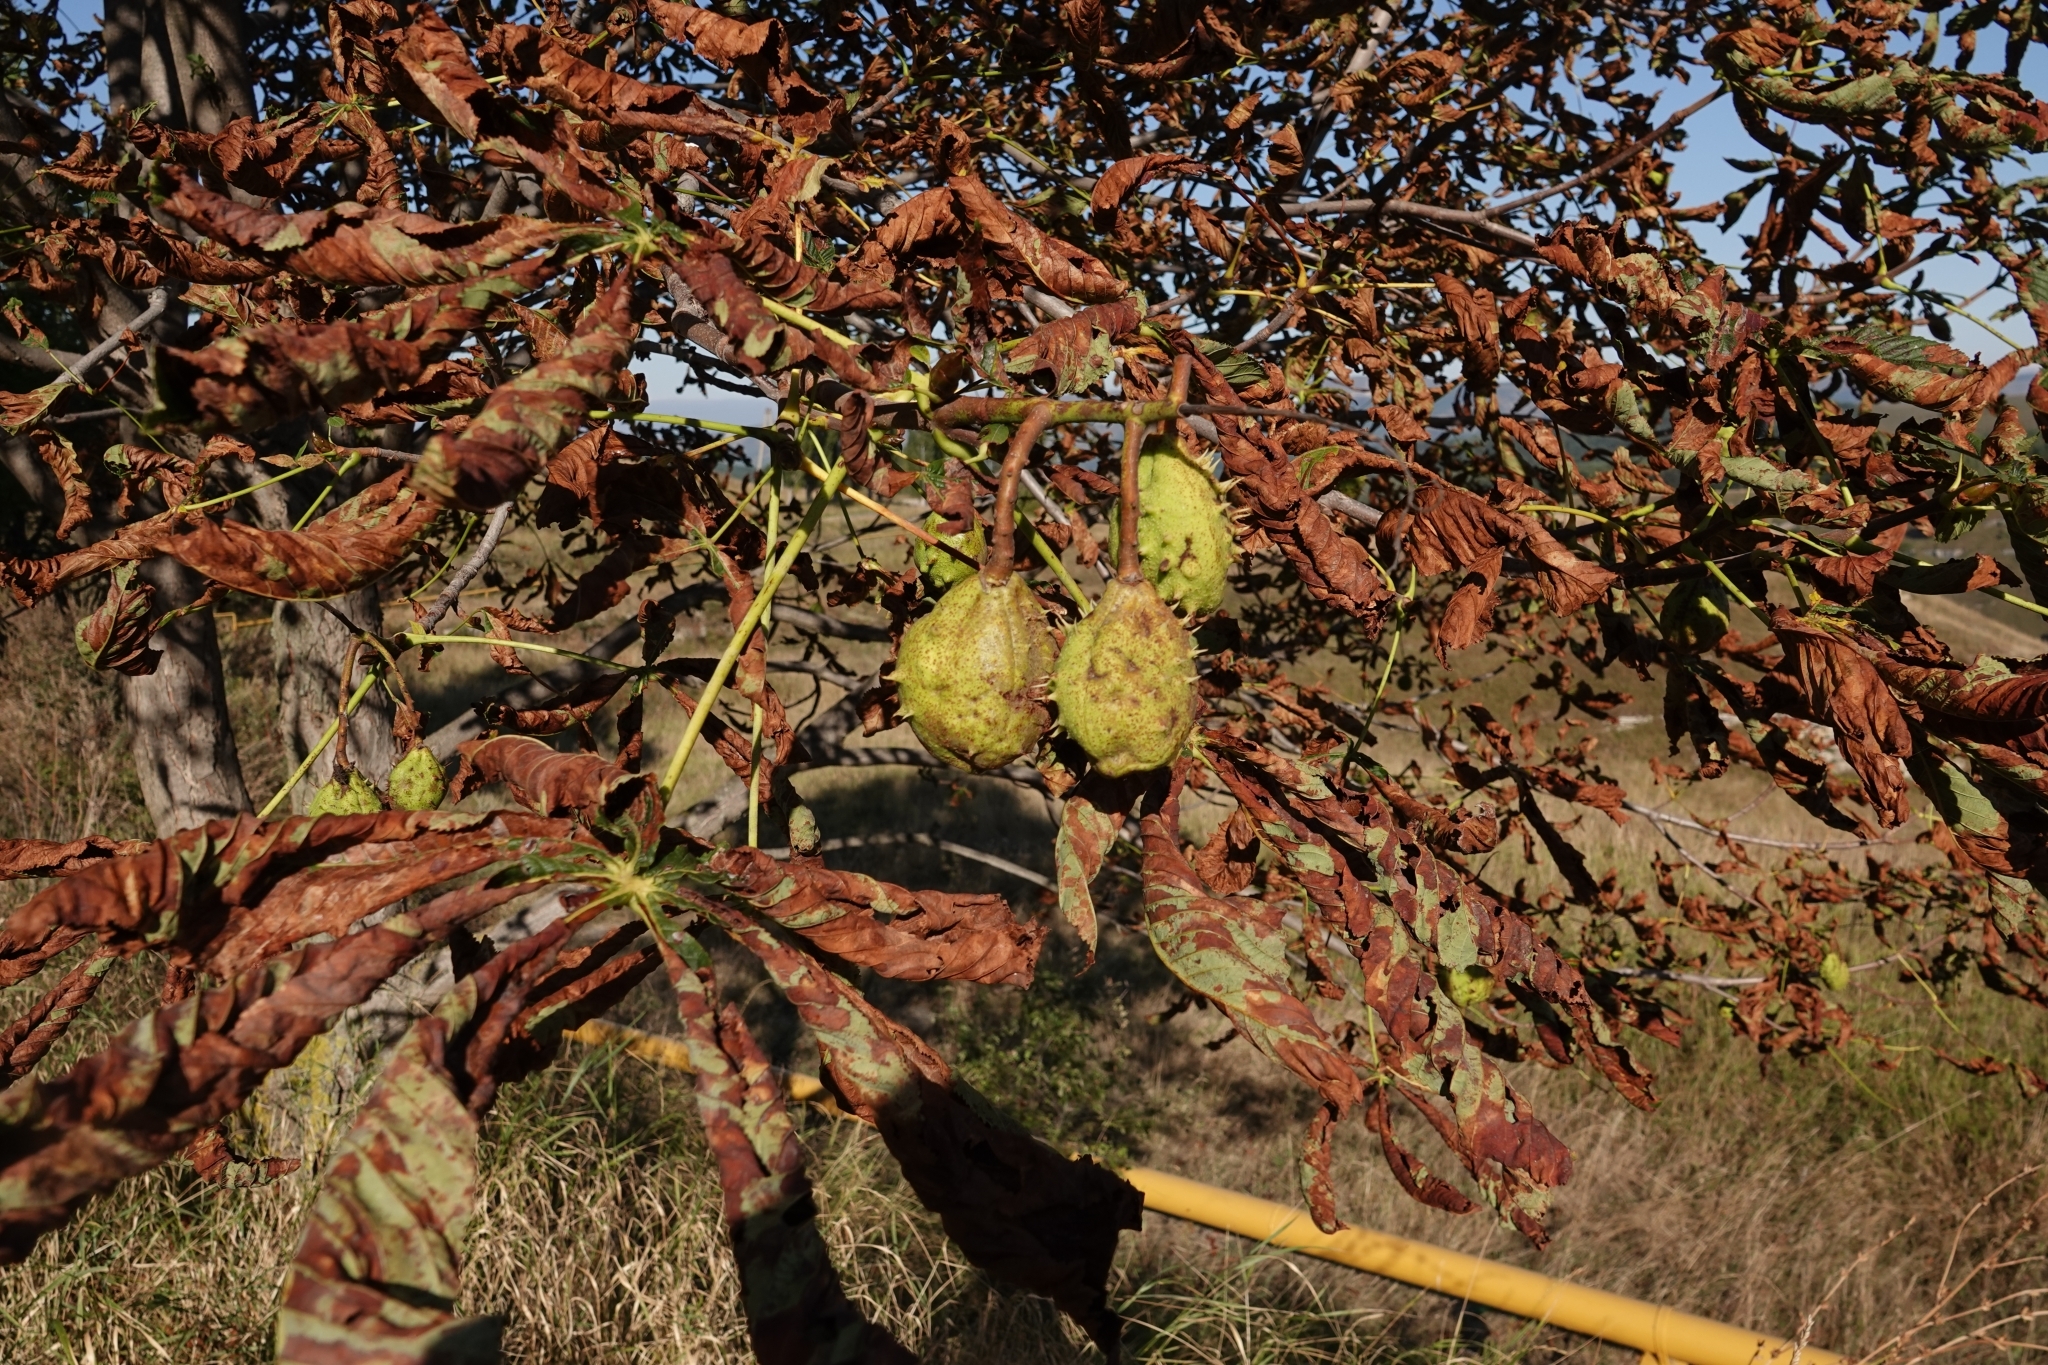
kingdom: Plantae
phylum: Tracheophyta
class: Magnoliopsida
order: Sapindales
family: Sapindaceae
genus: Aesculus
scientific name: Aesculus hippocastanum
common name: Horse-chestnut
